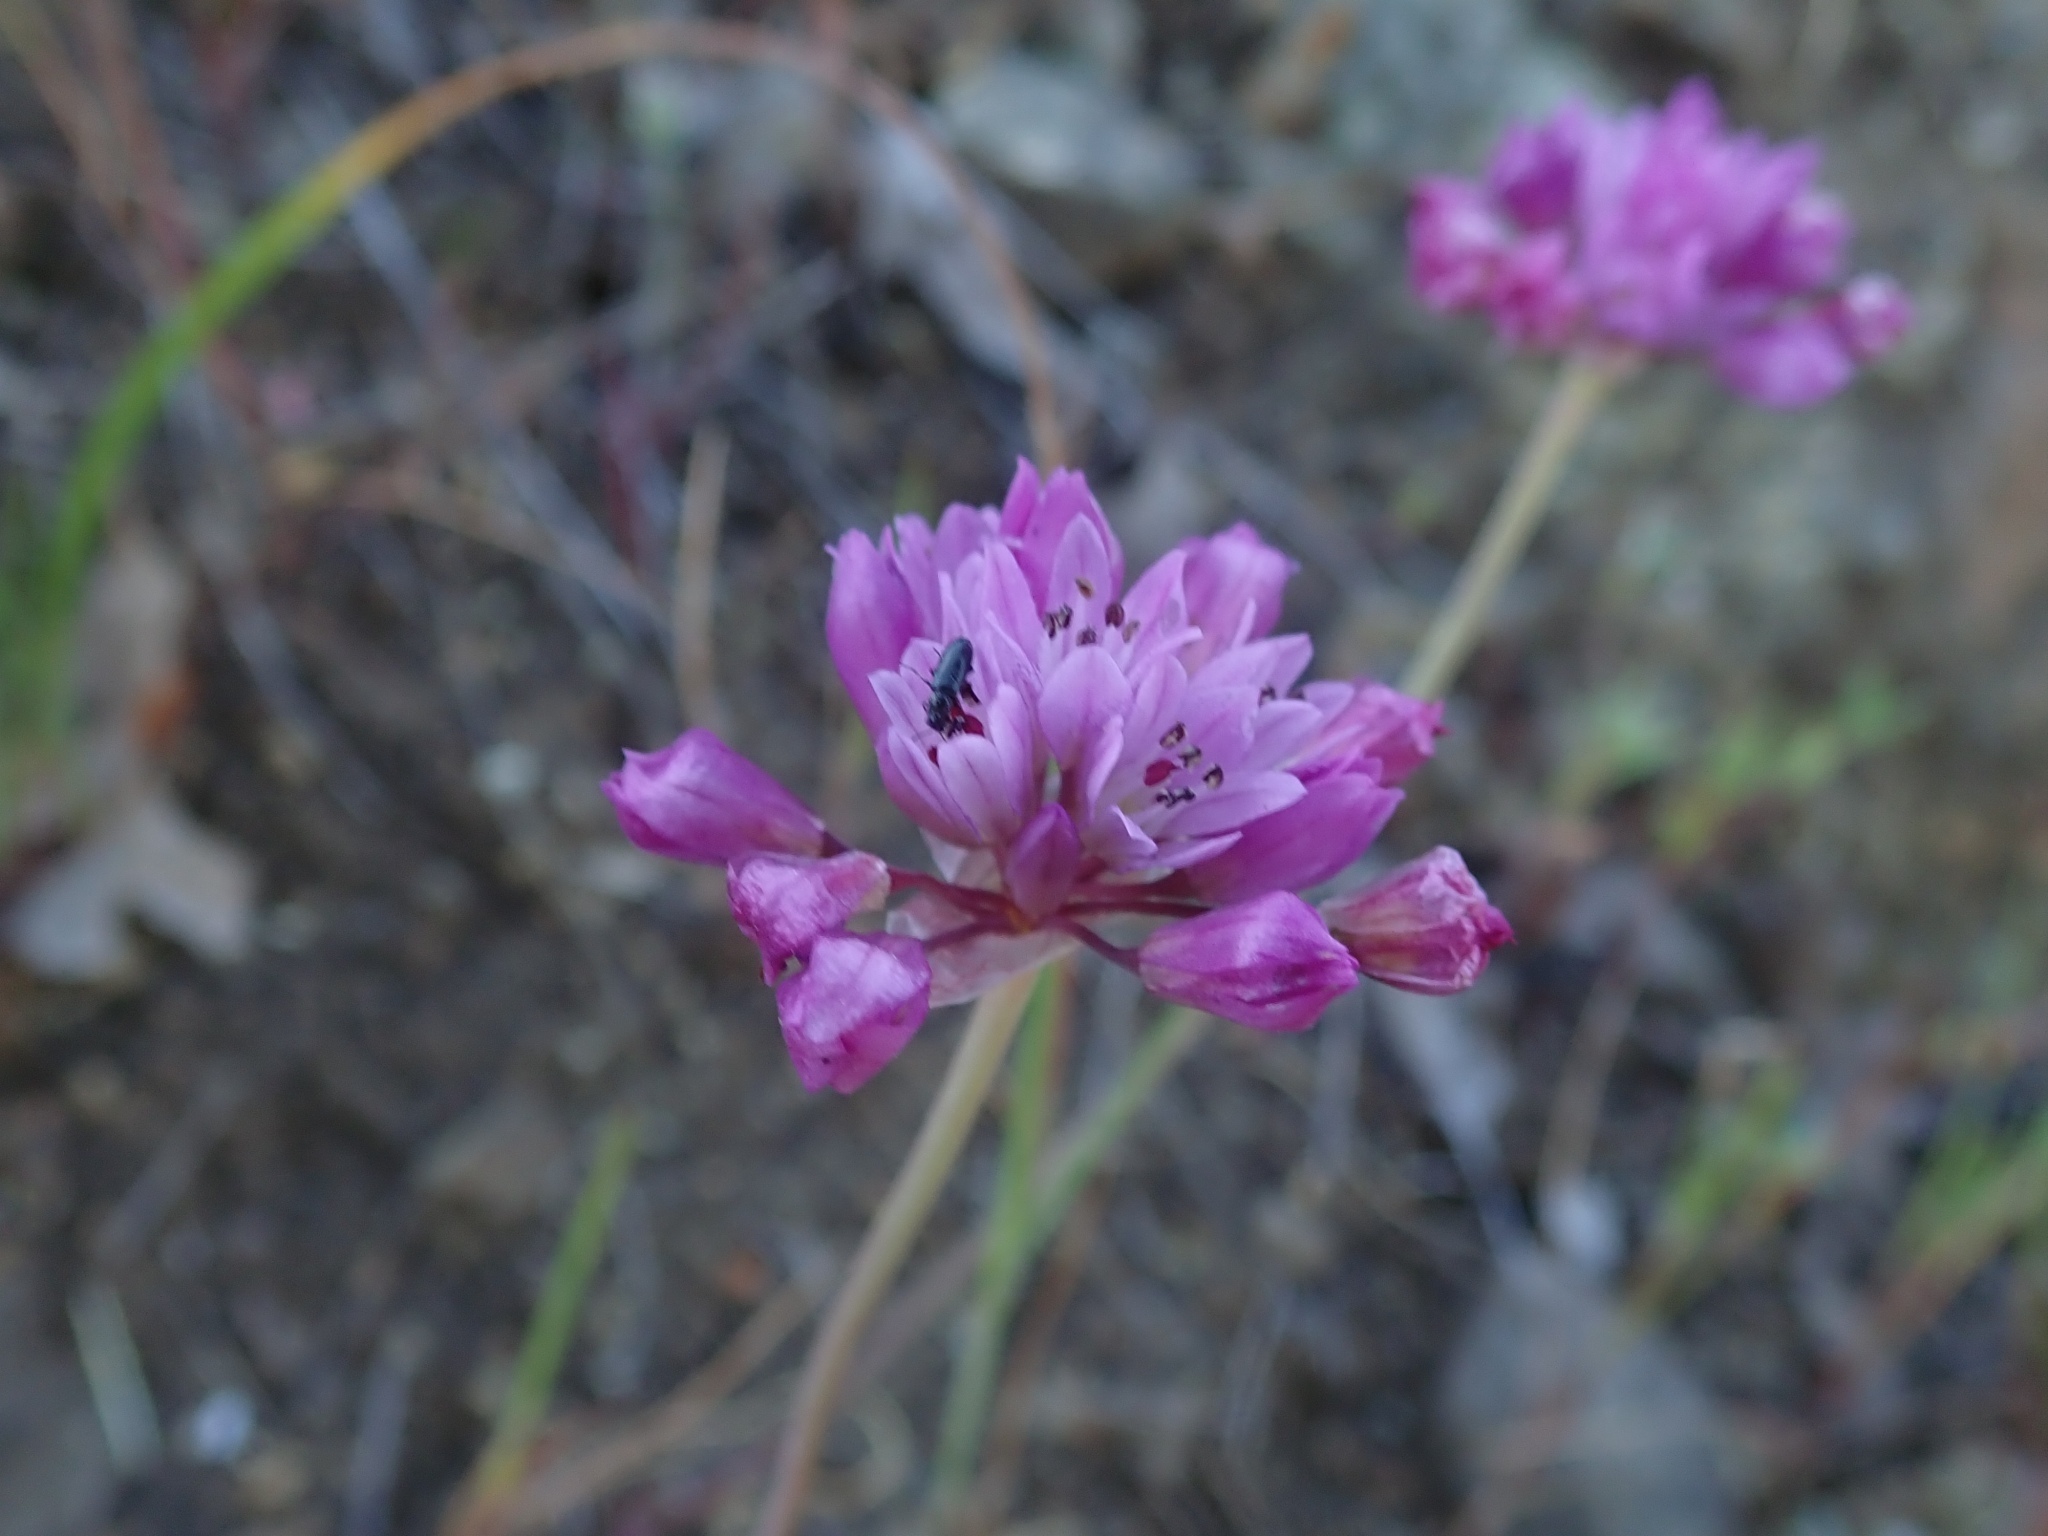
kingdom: Plantae
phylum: Tracheophyta
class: Liliopsida
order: Asparagales
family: Amaryllidaceae
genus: Allium
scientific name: Allium serra
